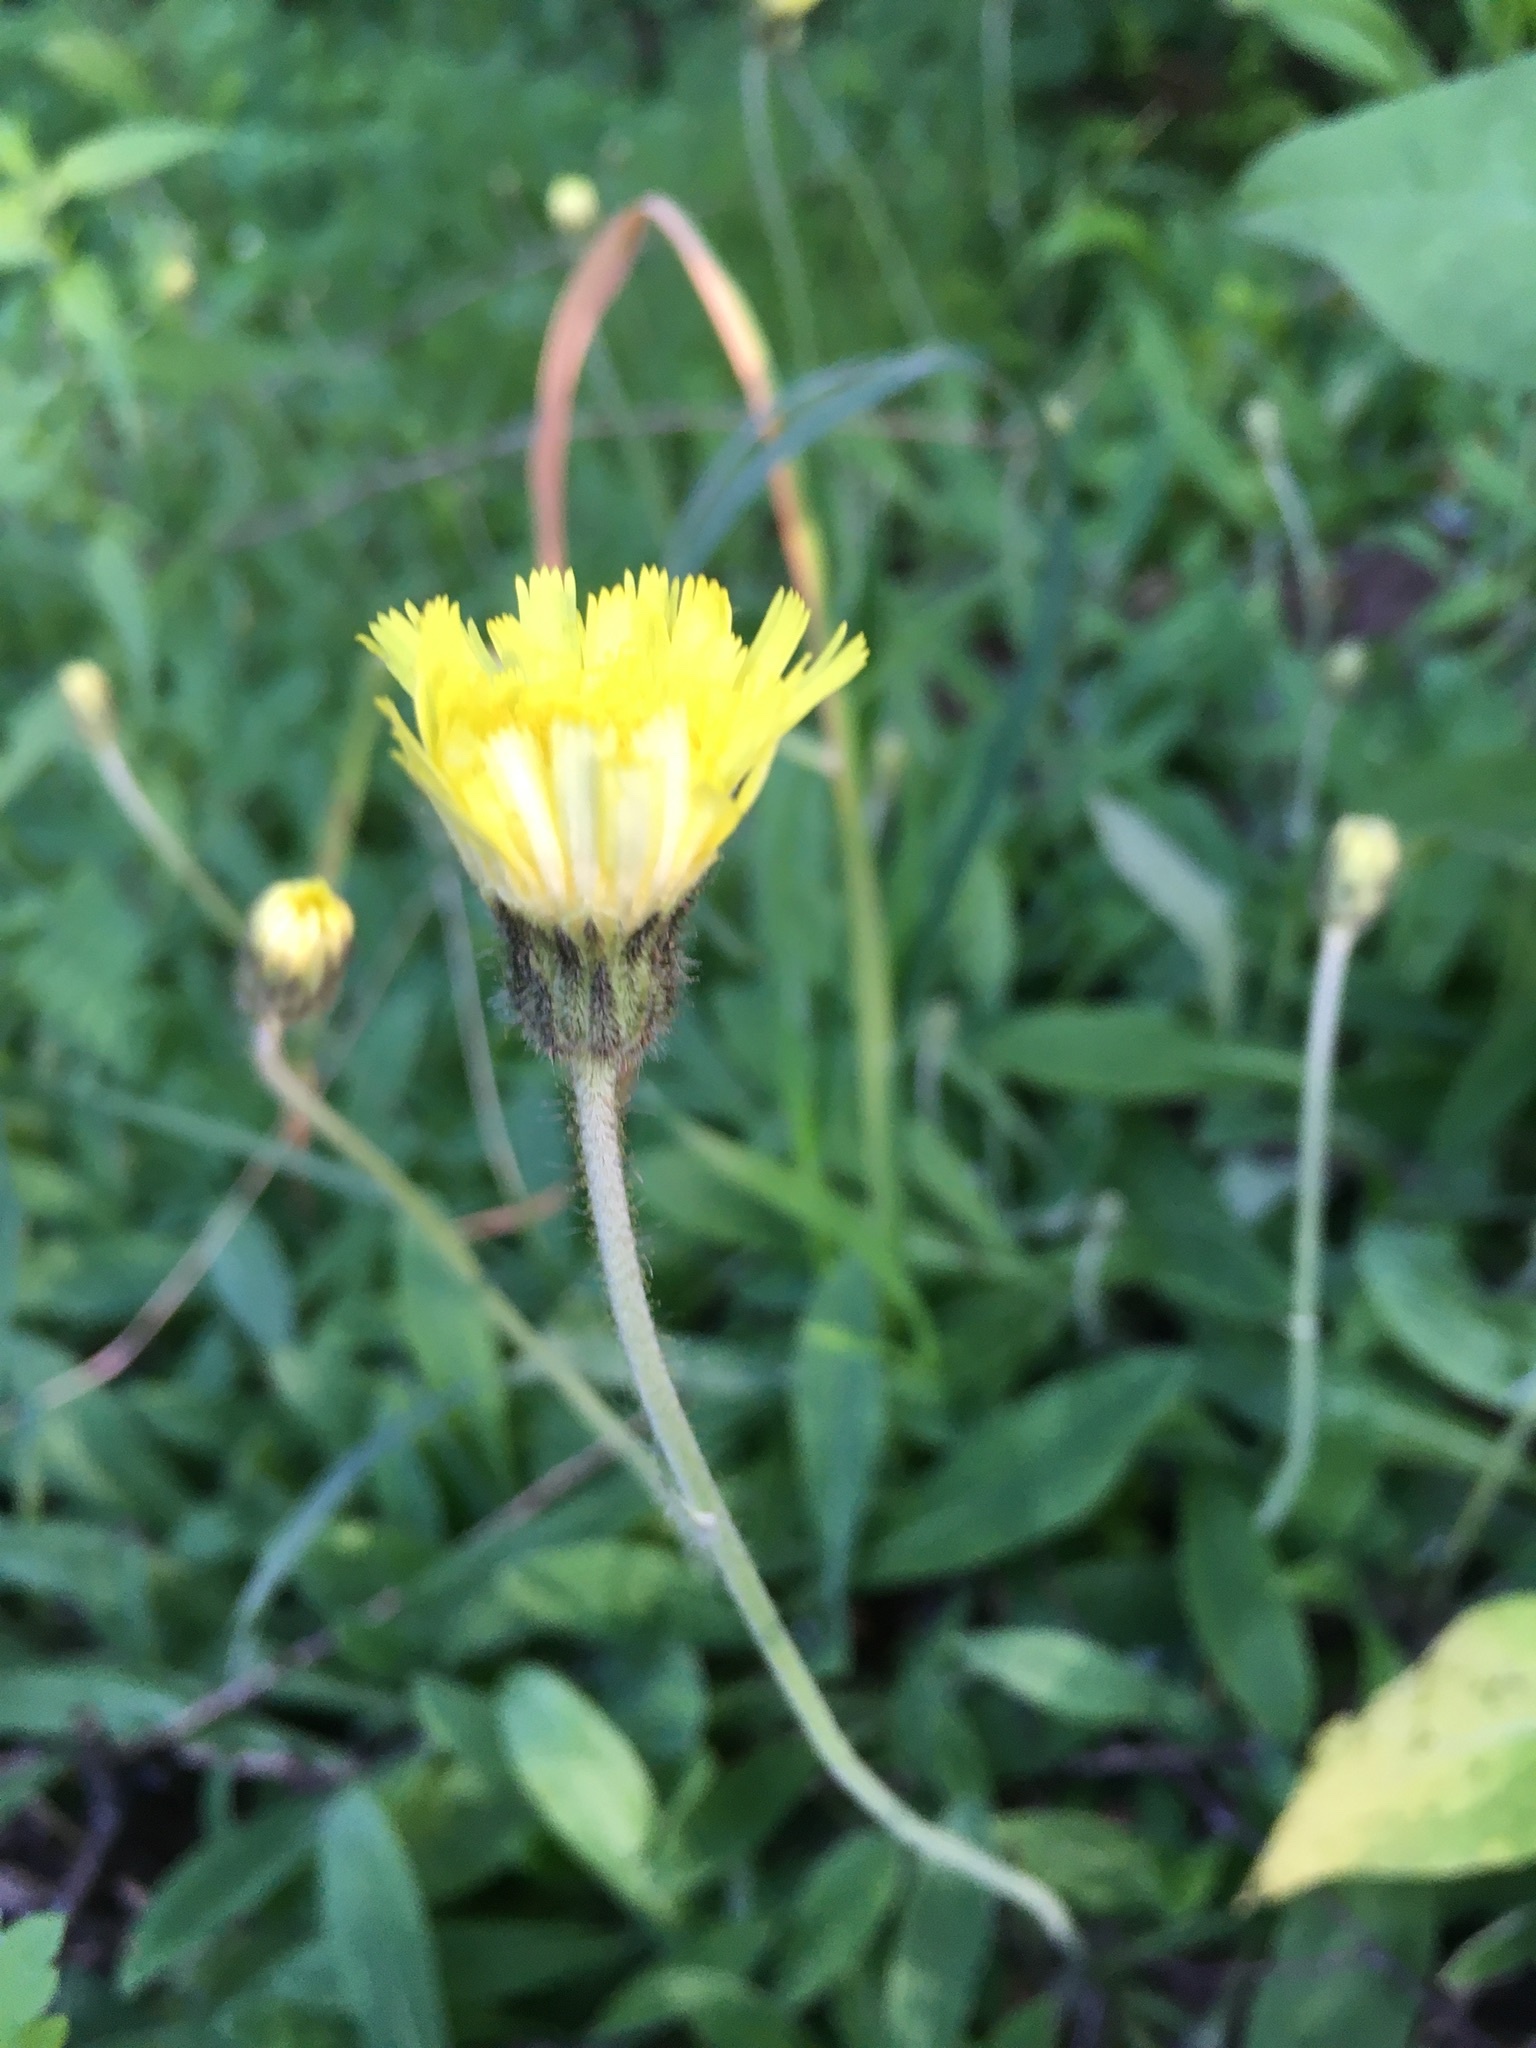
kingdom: Plantae
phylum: Tracheophyta
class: Magnoliopsida
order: Asterales
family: Asteraceae
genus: Pilosella
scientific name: Pilosella officinarum
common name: Mouse-ear hawkweed
